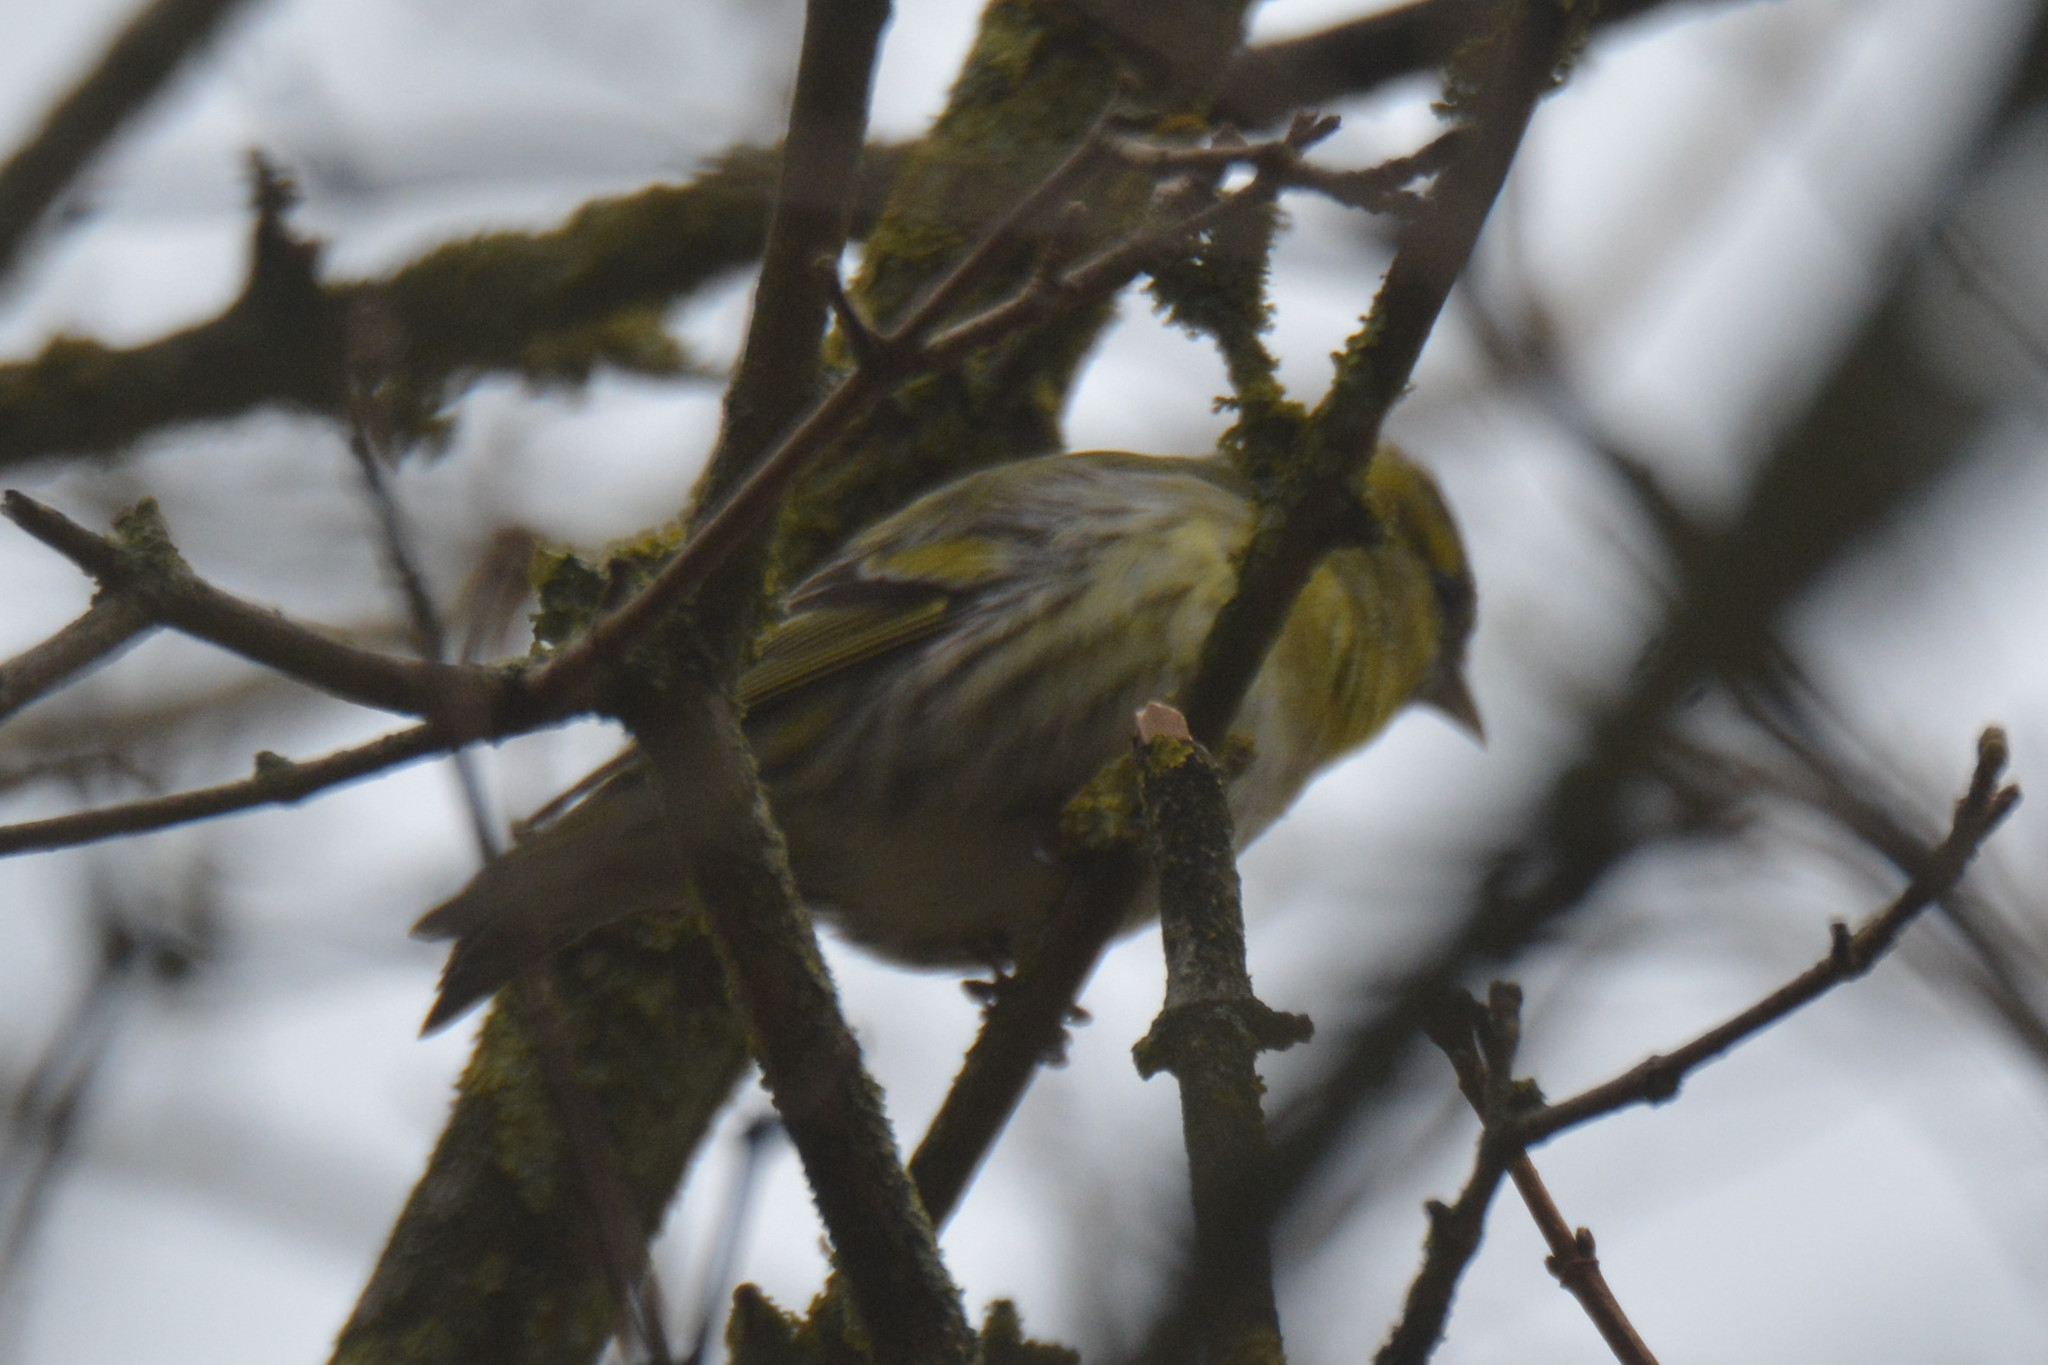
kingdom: Animalia
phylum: Chordata
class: Aves
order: Passeriformes
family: Fringillidae
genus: Spinus
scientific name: Spinus spinus
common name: Eurasian siskin
